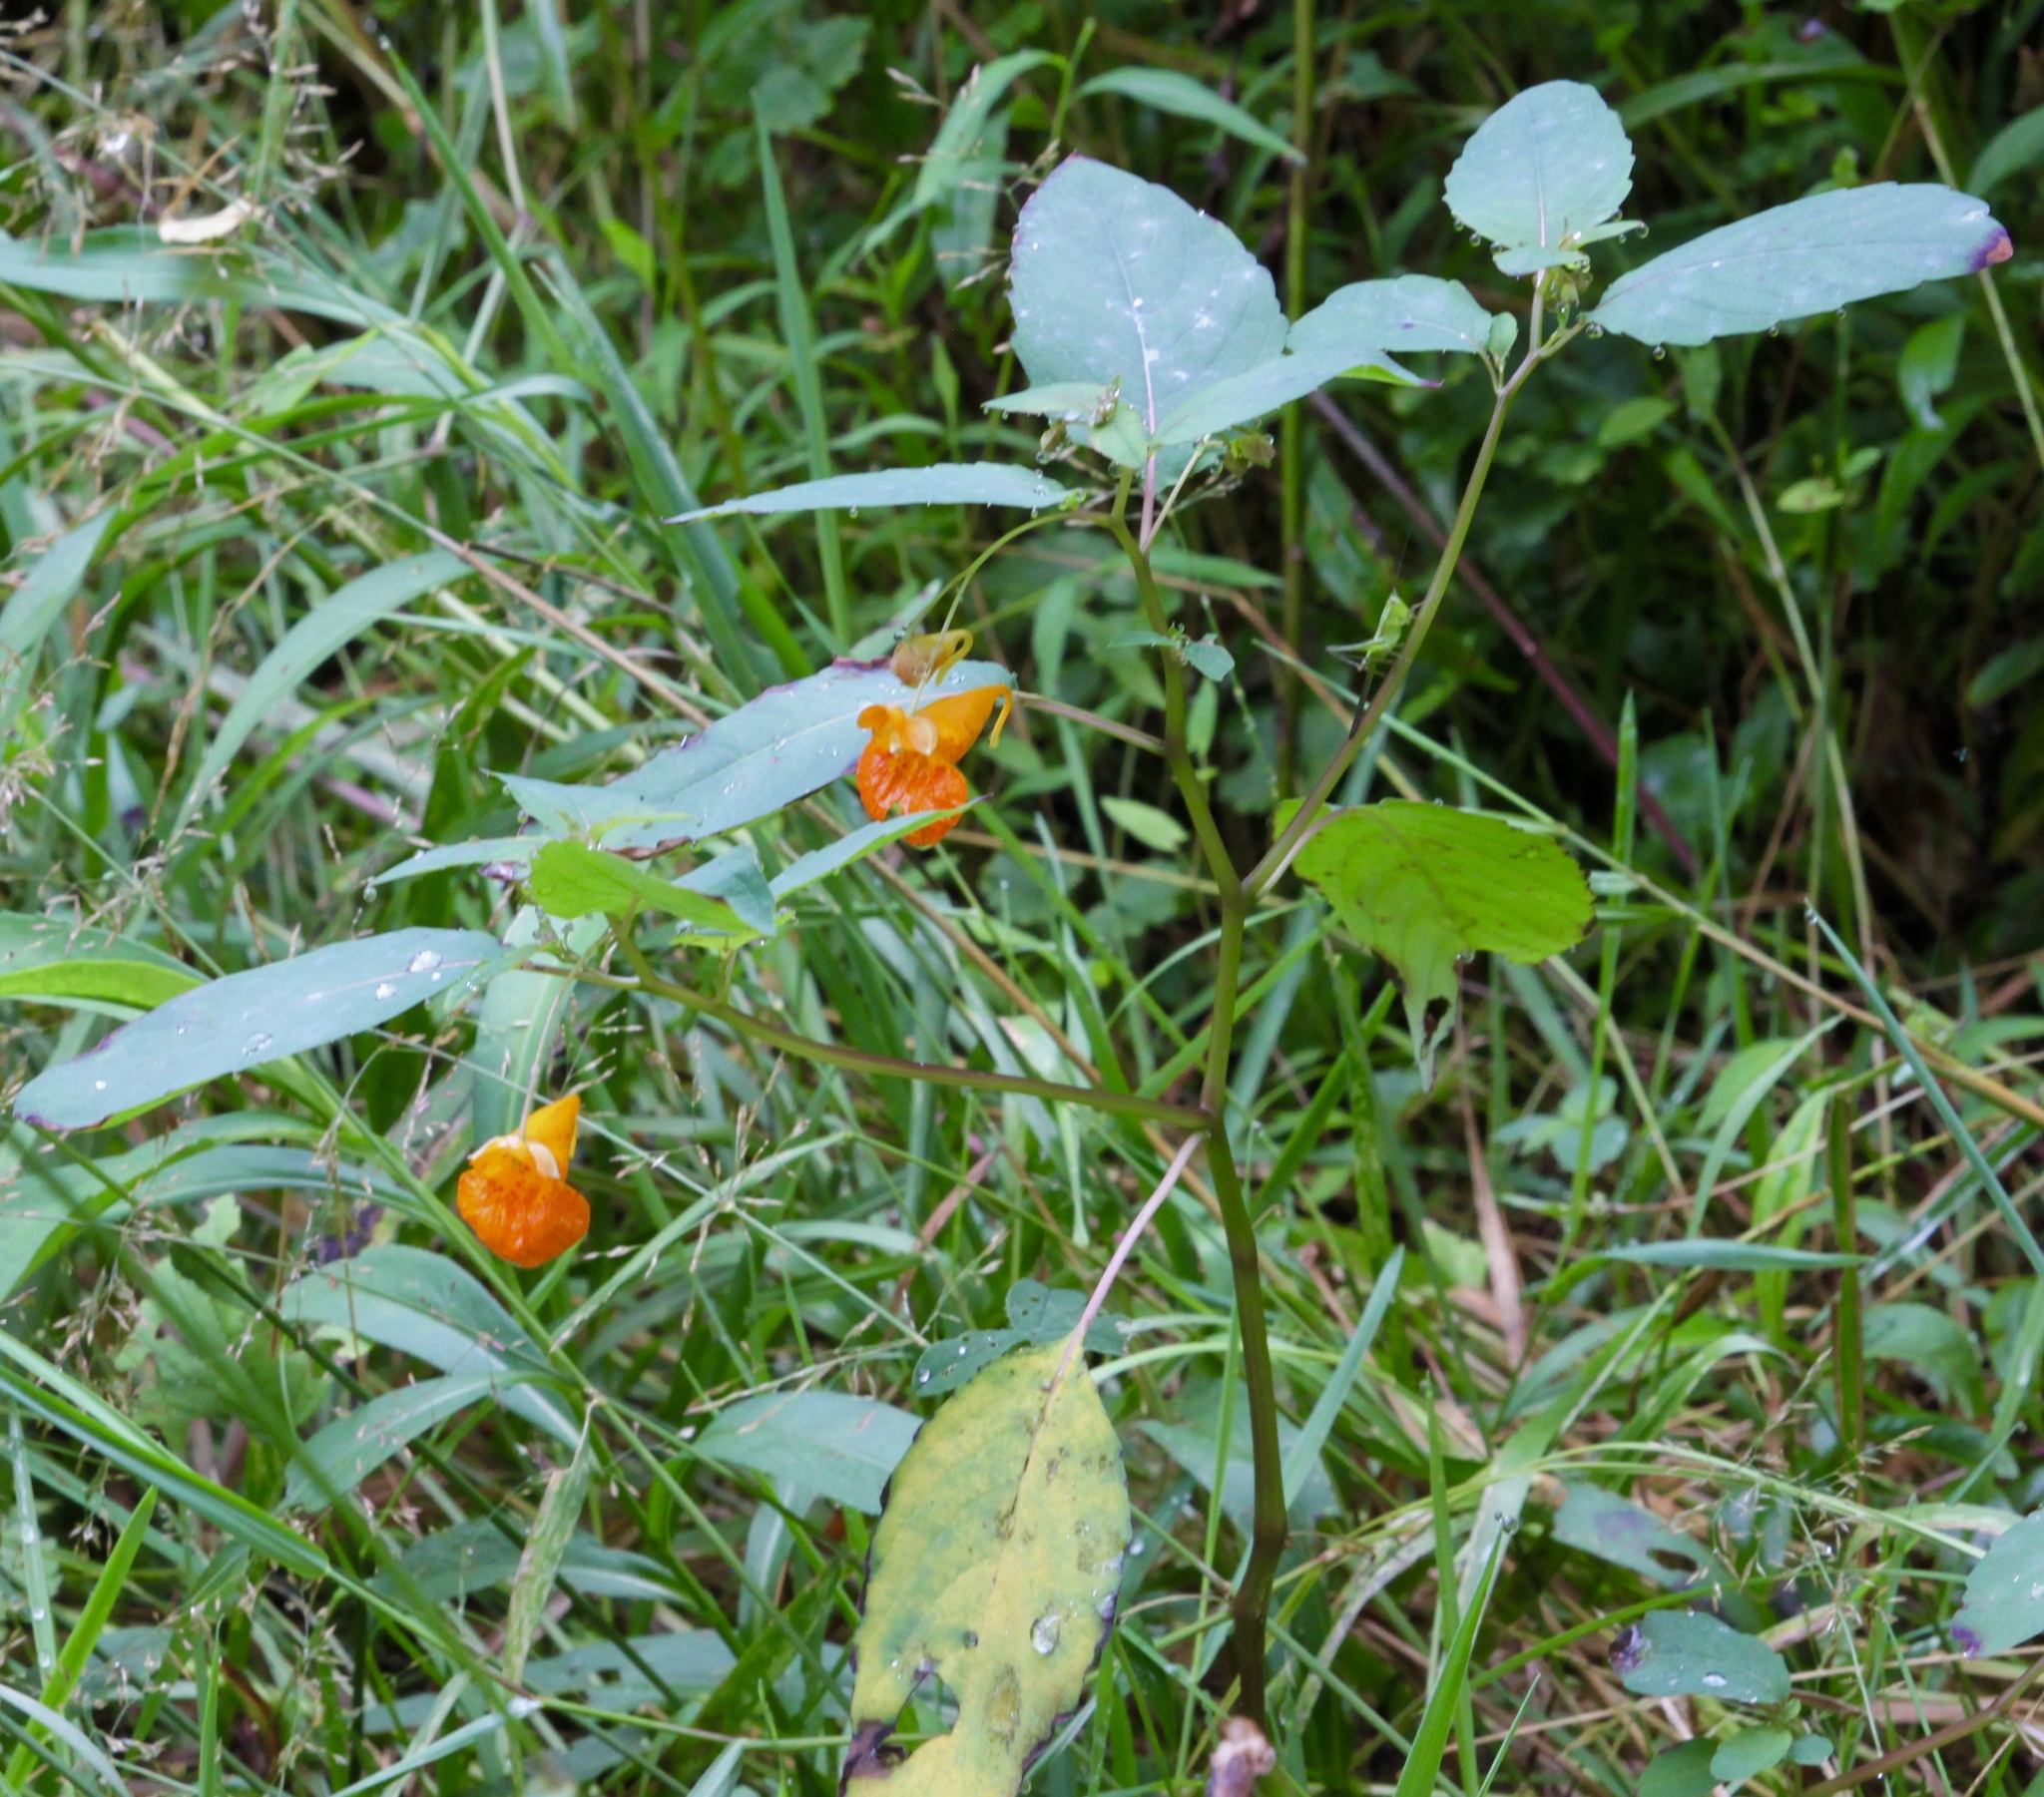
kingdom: Plantae
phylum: Tracheophyta
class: Magnoliopsida
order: Ericales
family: Balsaminaceae
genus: Impatiens
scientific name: Impatiens capensis
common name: Orange balsam
